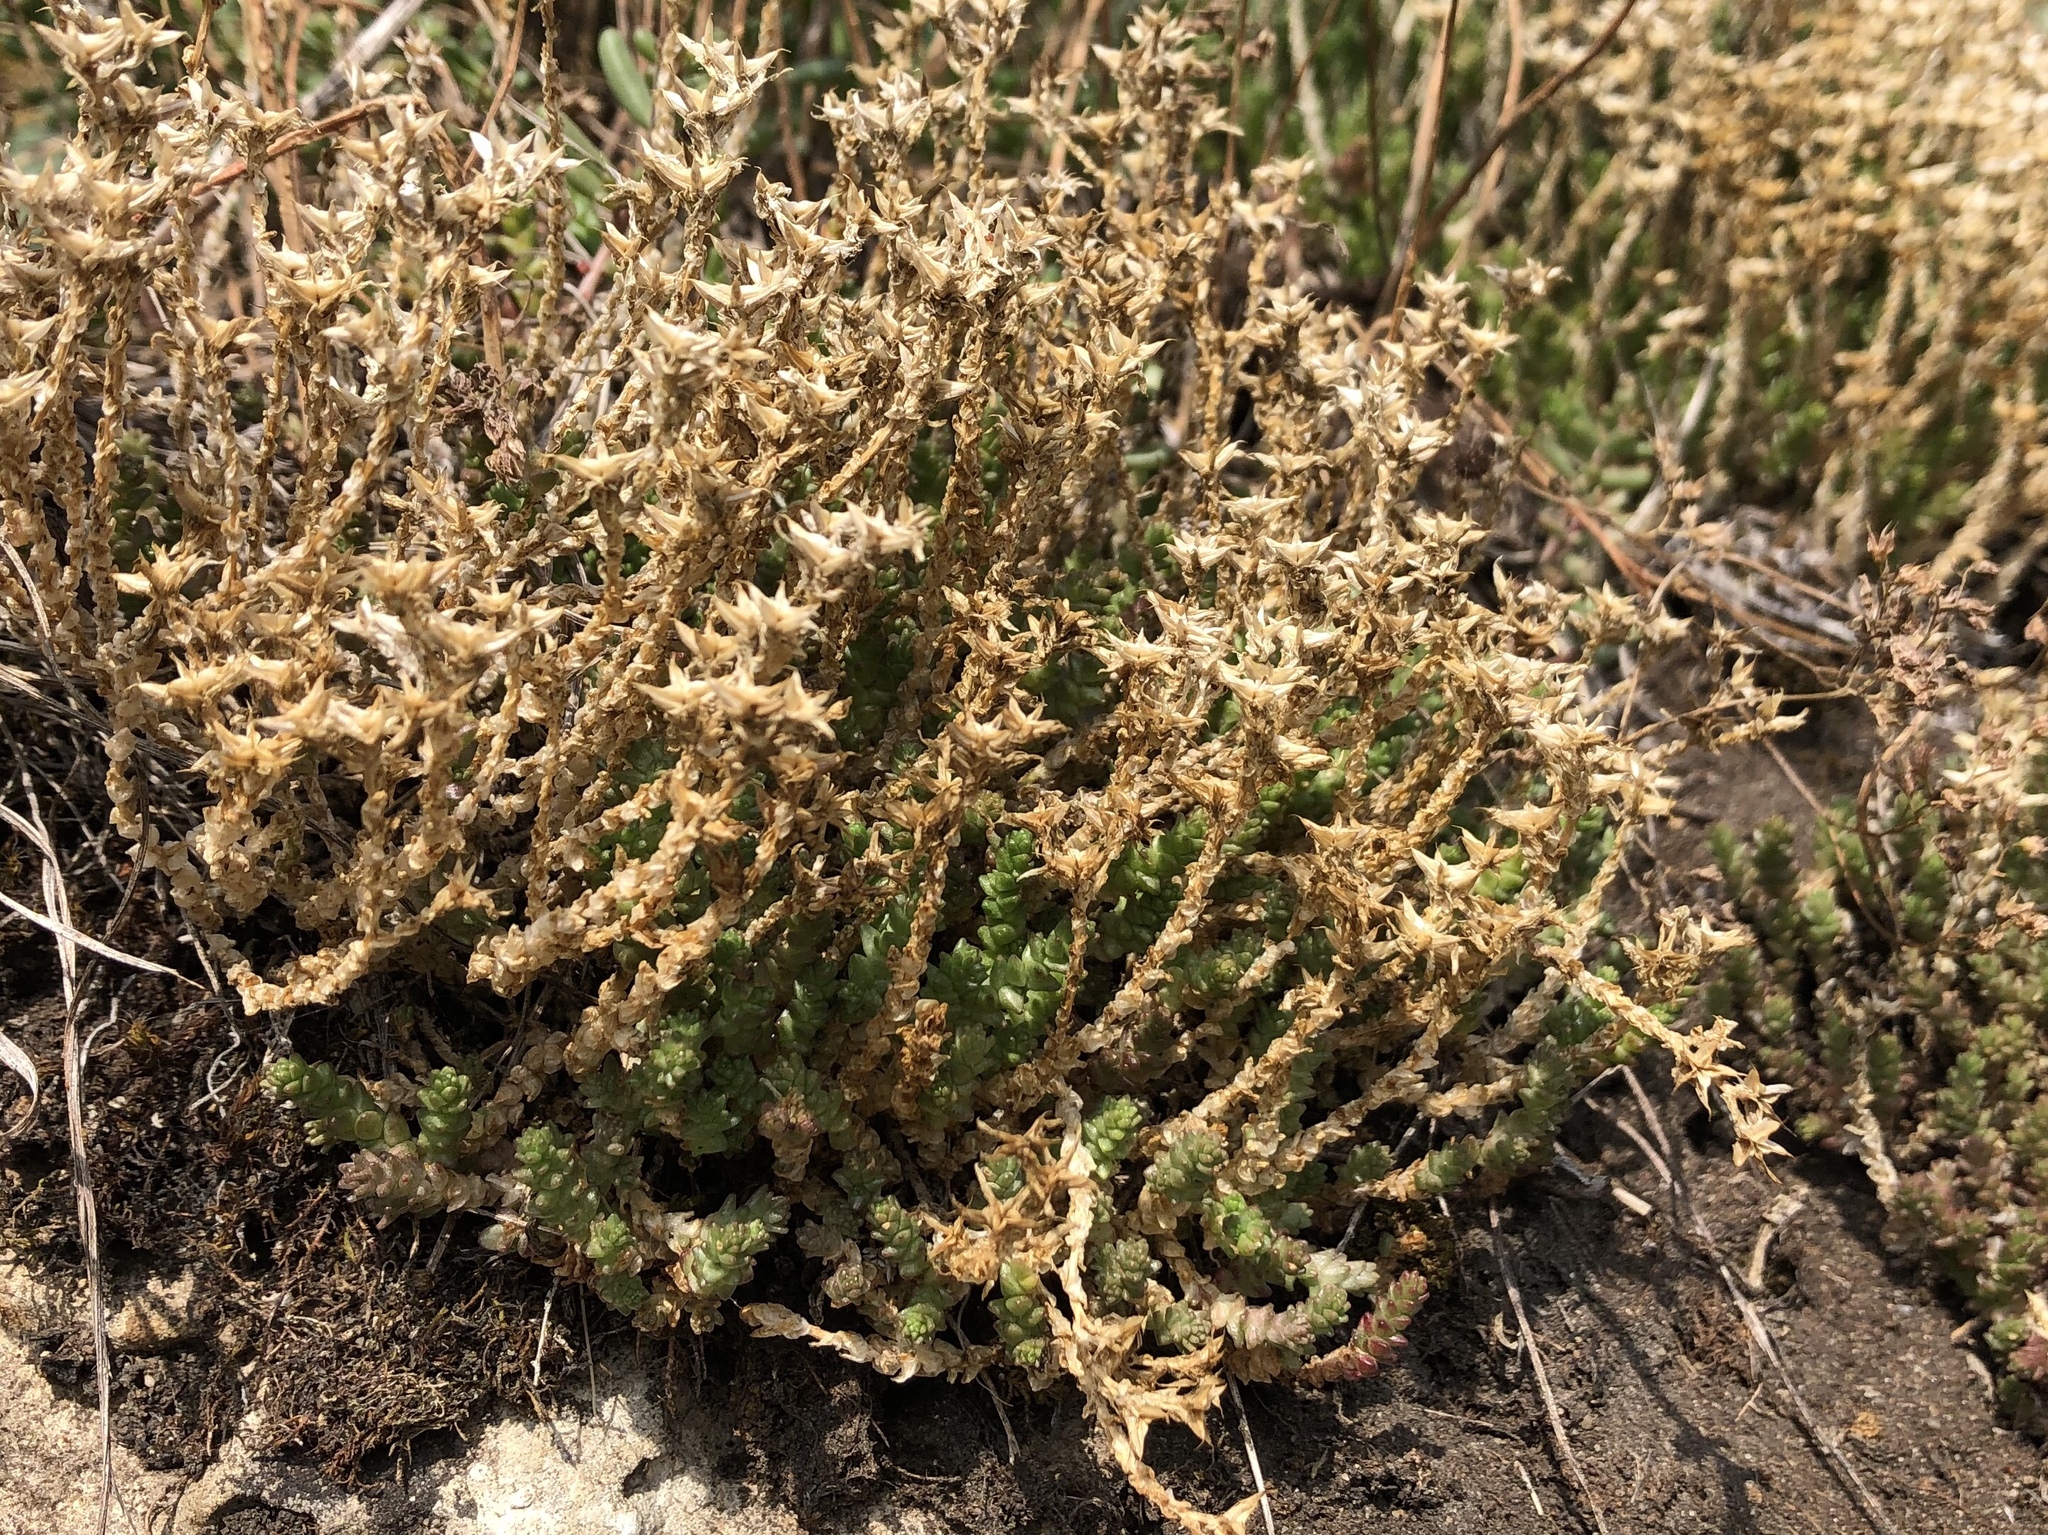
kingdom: Plantae
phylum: Tracheophyta
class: Magnoliopsida
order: Saxifragales
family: Crassulaceae
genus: Sedum
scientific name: Sedum acre
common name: Biting stonecrop
